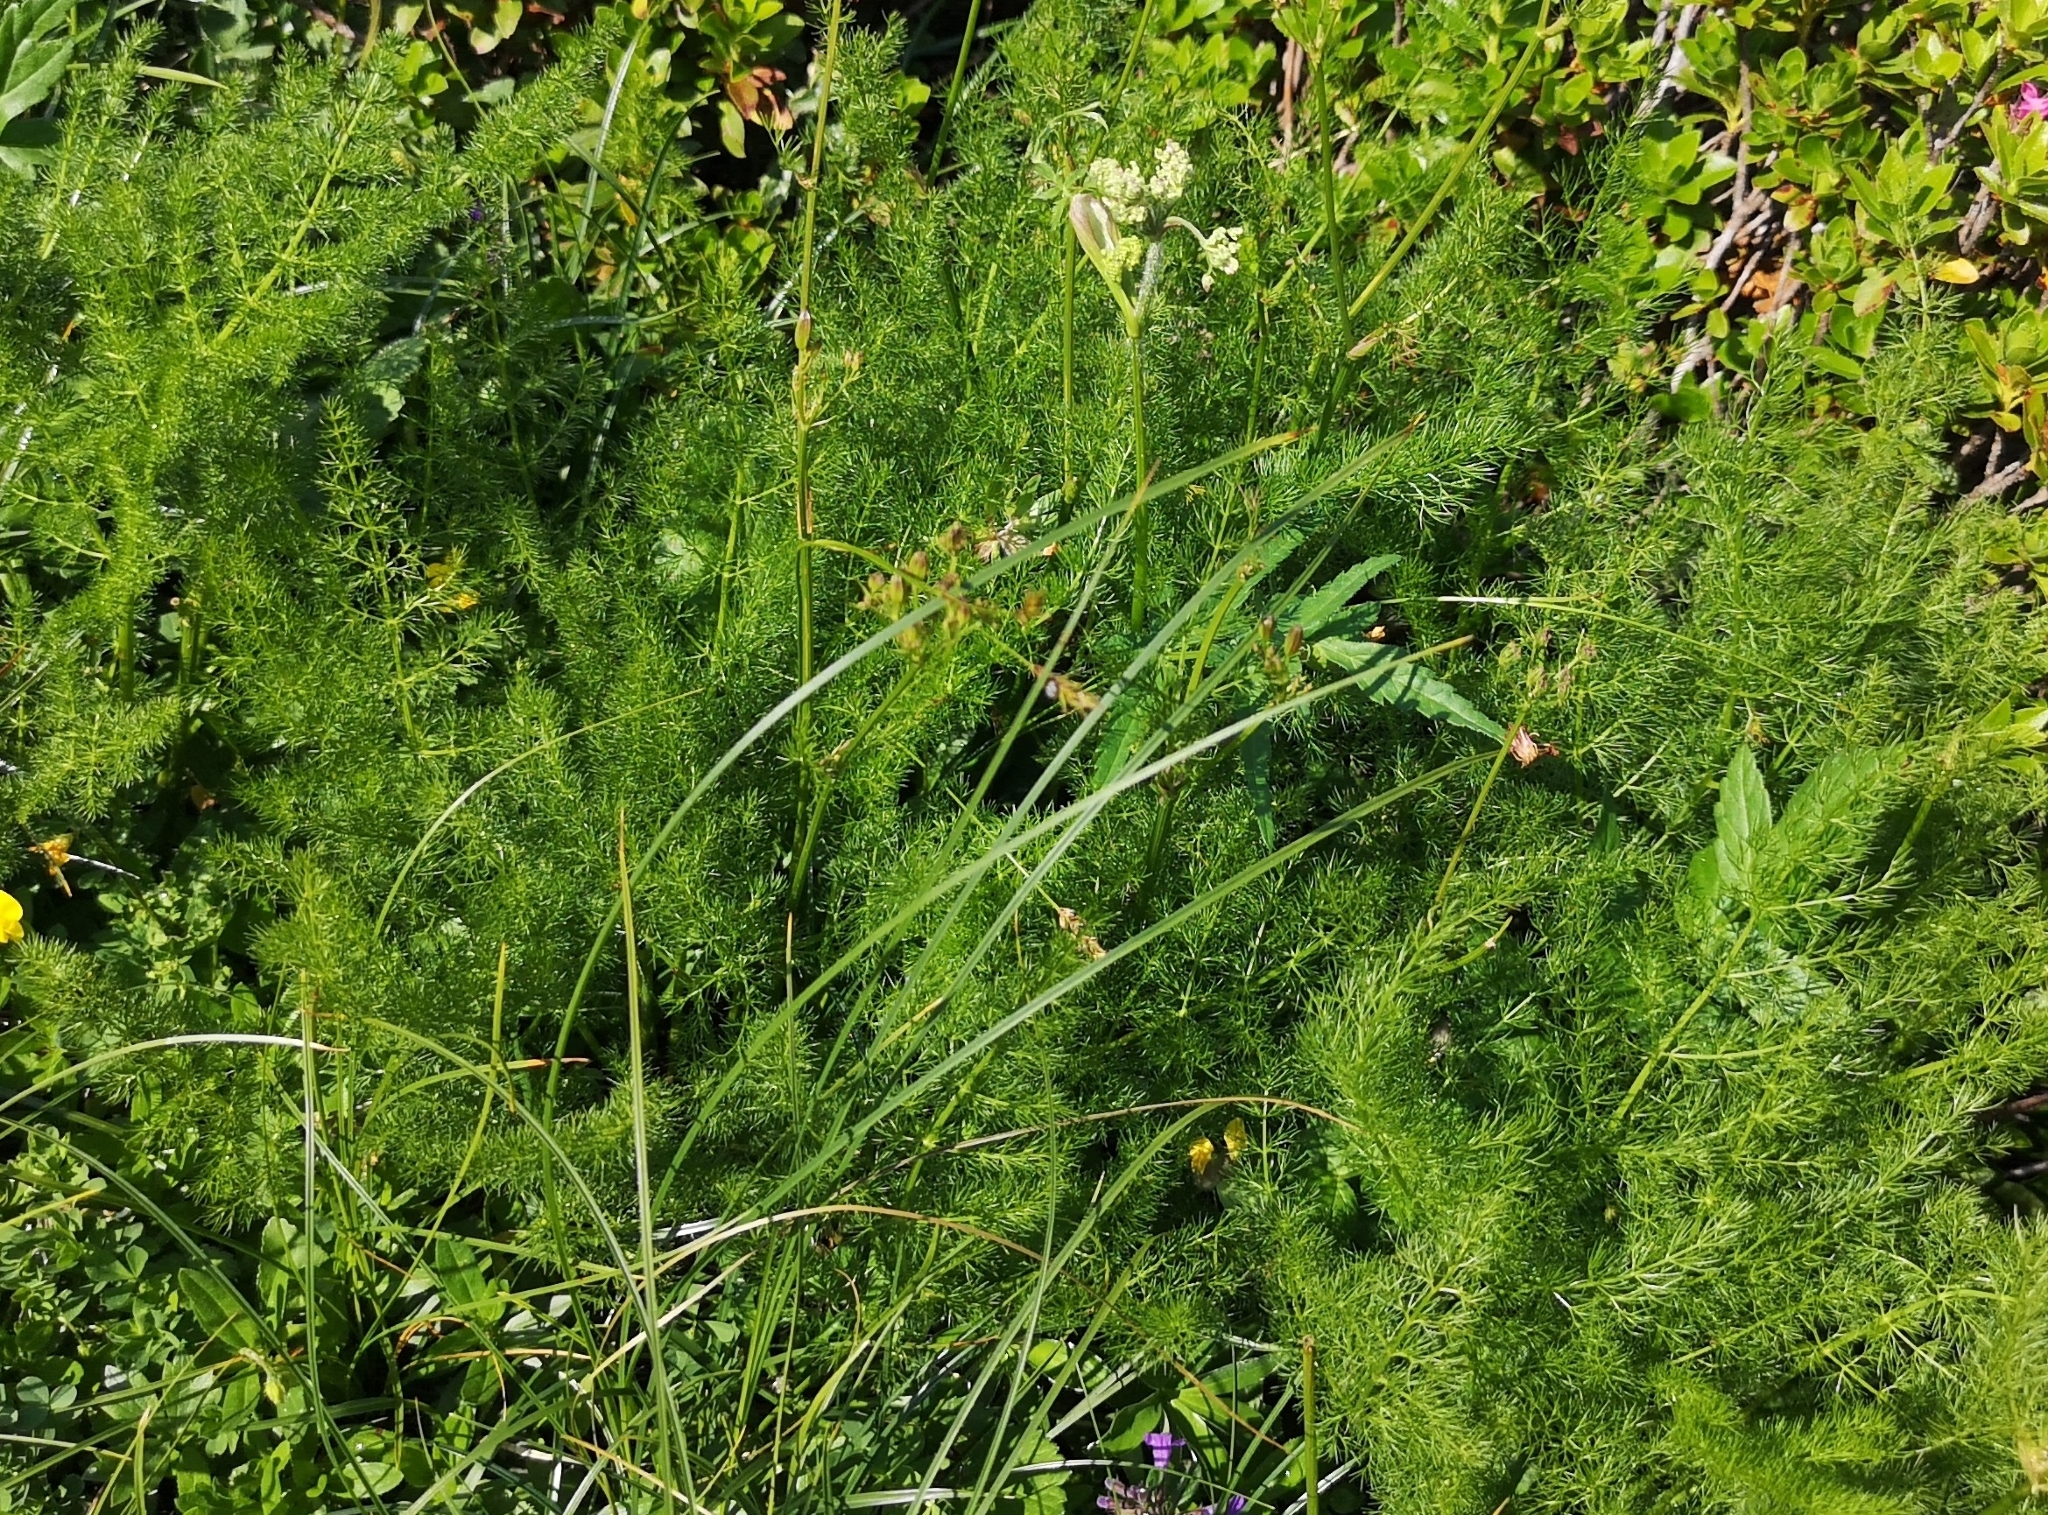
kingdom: Plantae
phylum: Tracheophyta
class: Magnoliopsida
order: Apiales
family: Apiaceae
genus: Meum
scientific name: Meum athamanticum
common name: Spignel
